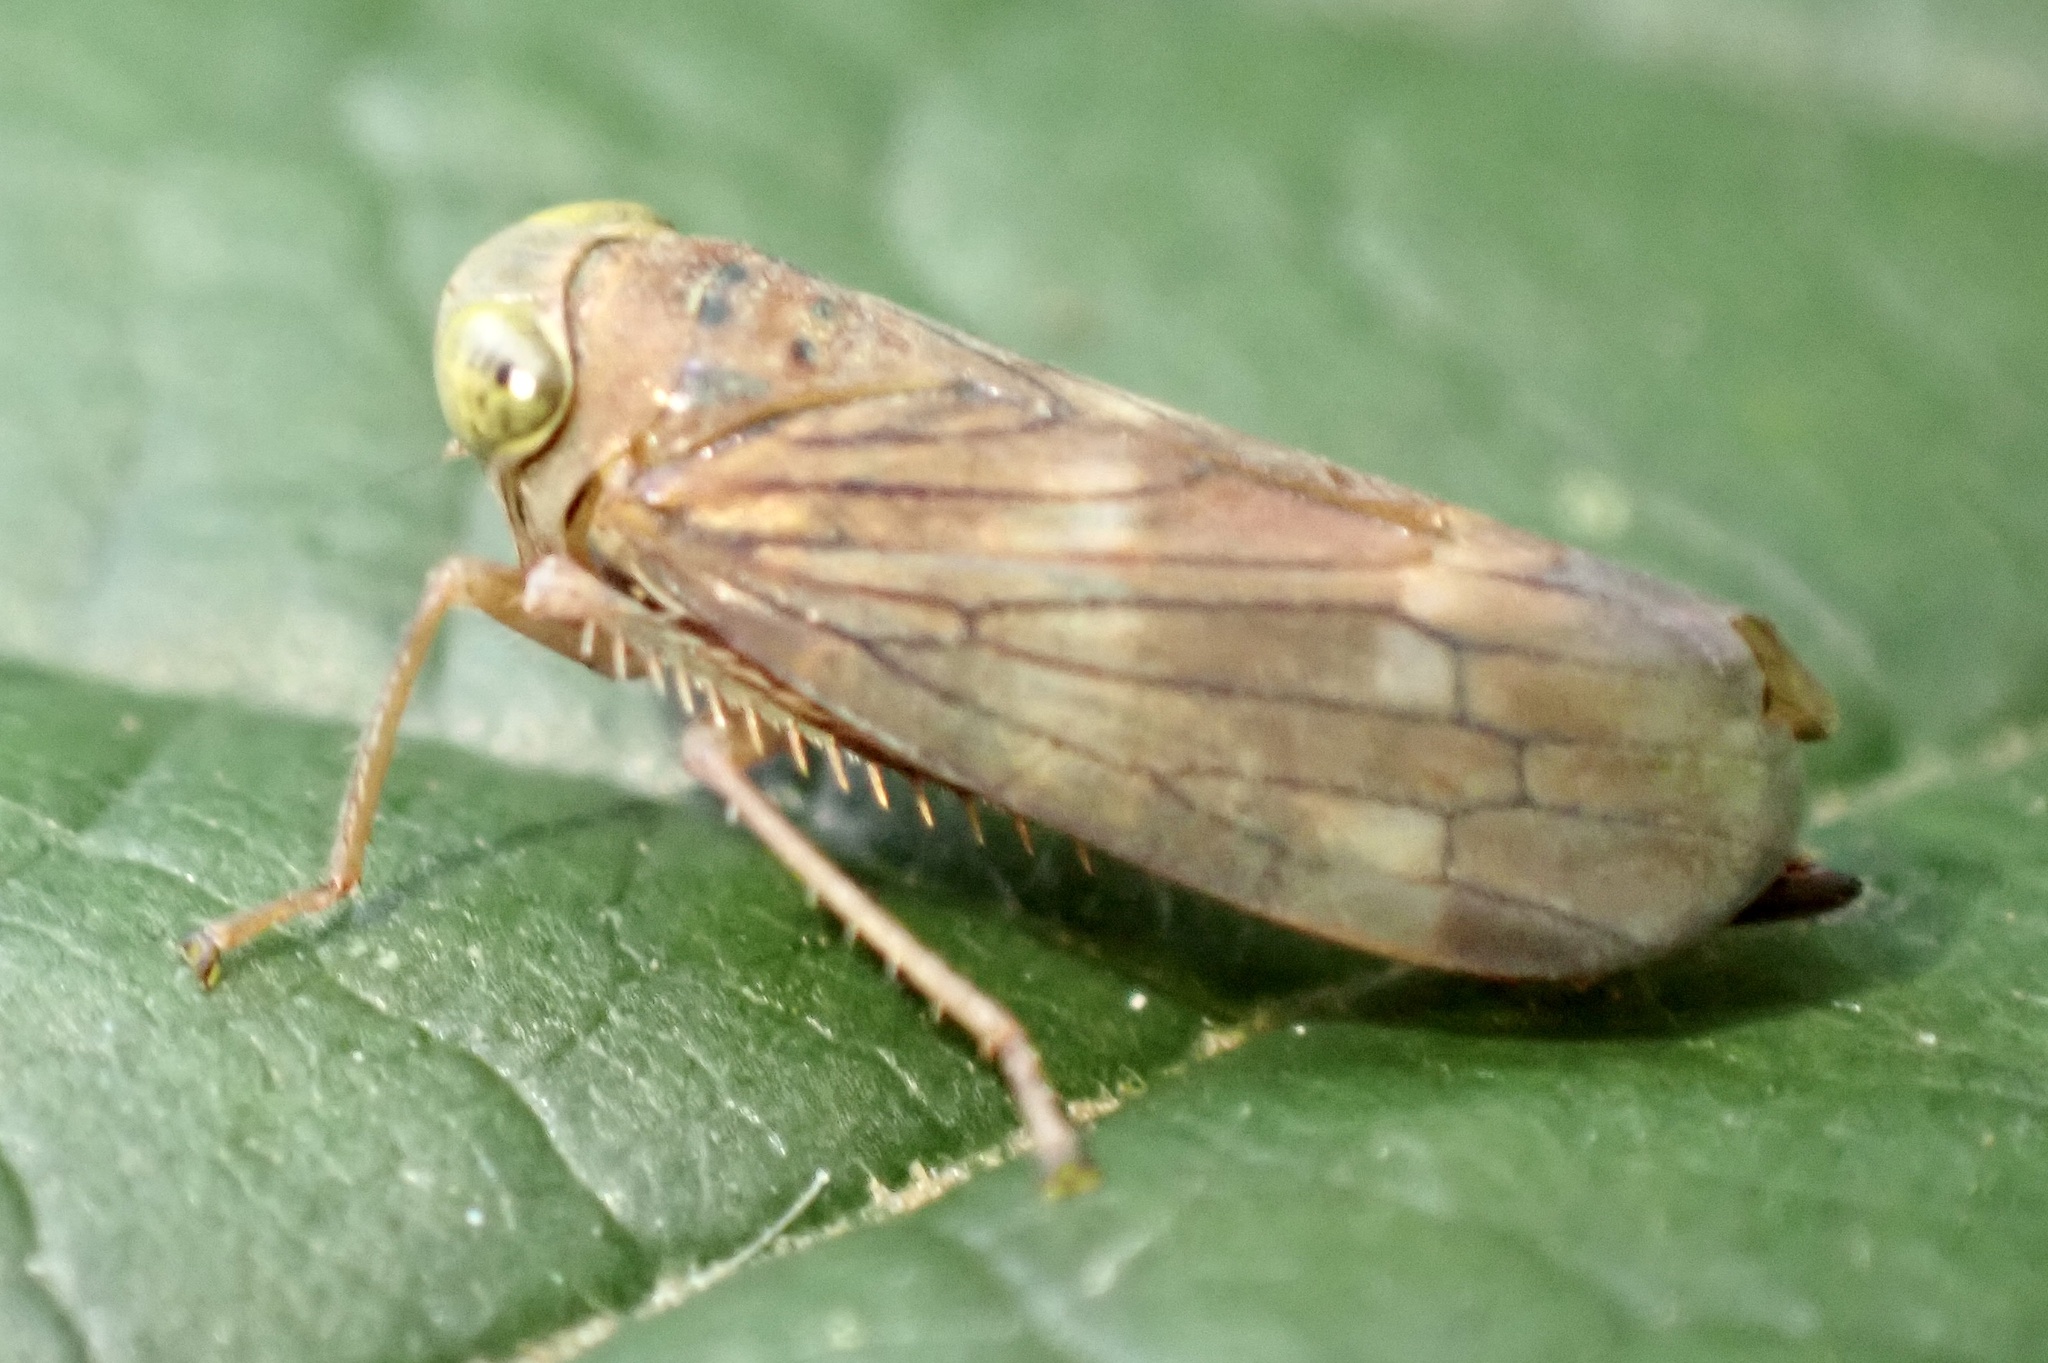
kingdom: Animalia
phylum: Arthropoda
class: Insecta
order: Hemiptera
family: Cicadellidae
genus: Jikradia
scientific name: Jikradia olitoria
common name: Coppery leafhopper
